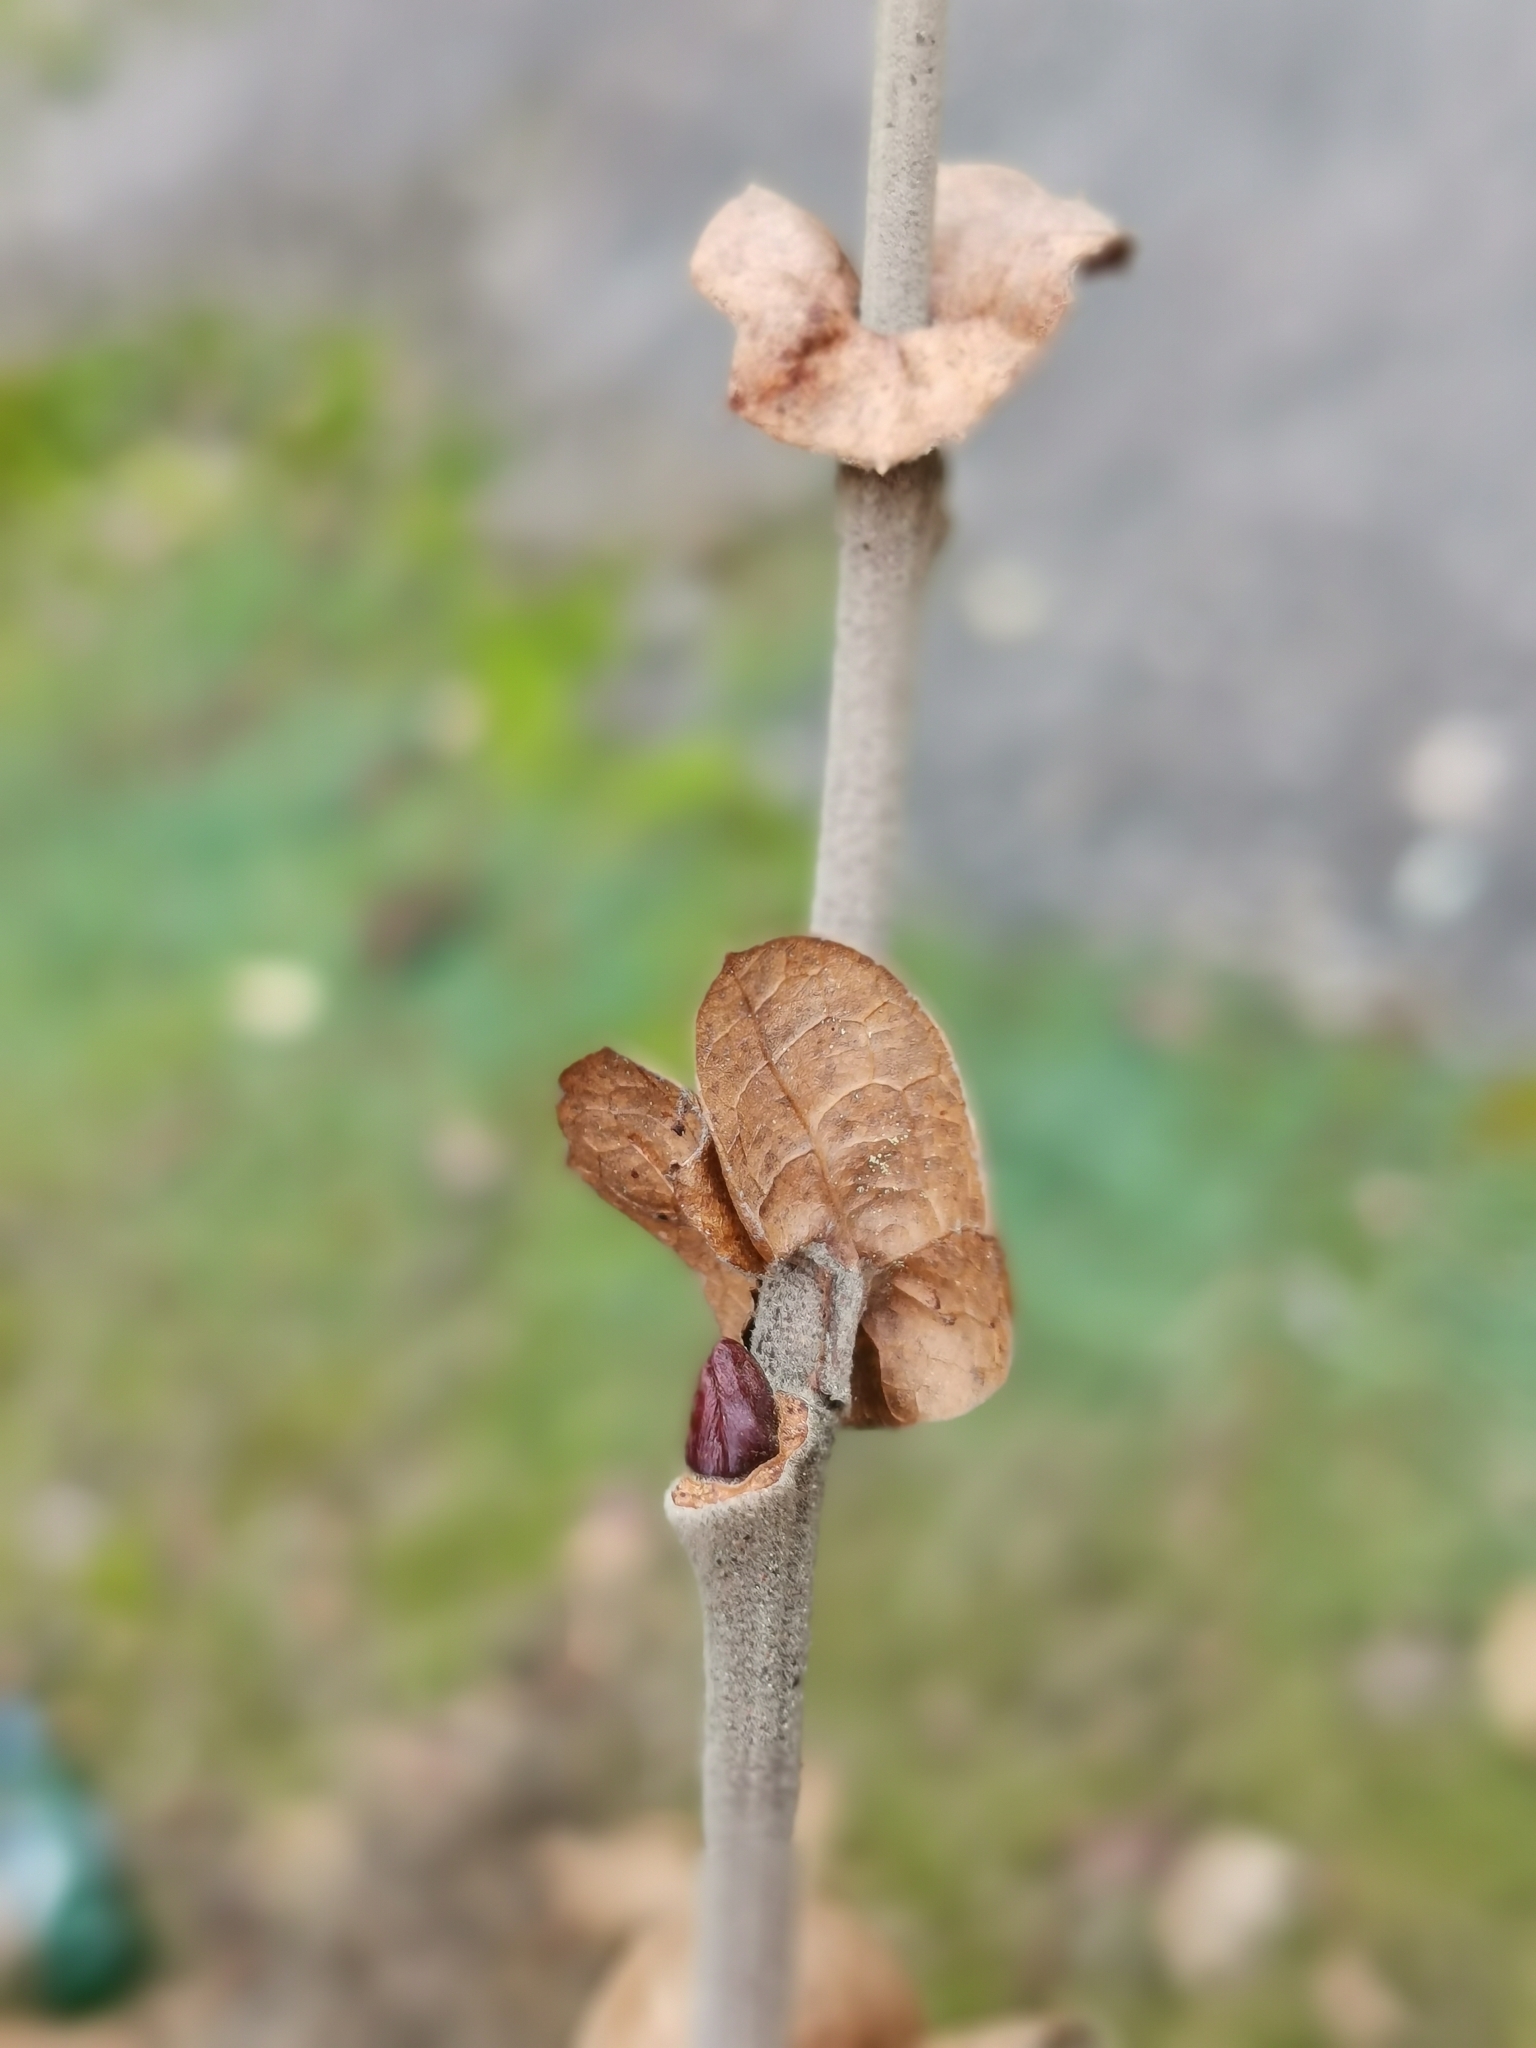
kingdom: Plantae
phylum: Tracheophyta
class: Magnoliopsida
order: Proteales
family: Platanaceae
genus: Platanus
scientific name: Platanus orientalis
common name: Oriental plane
